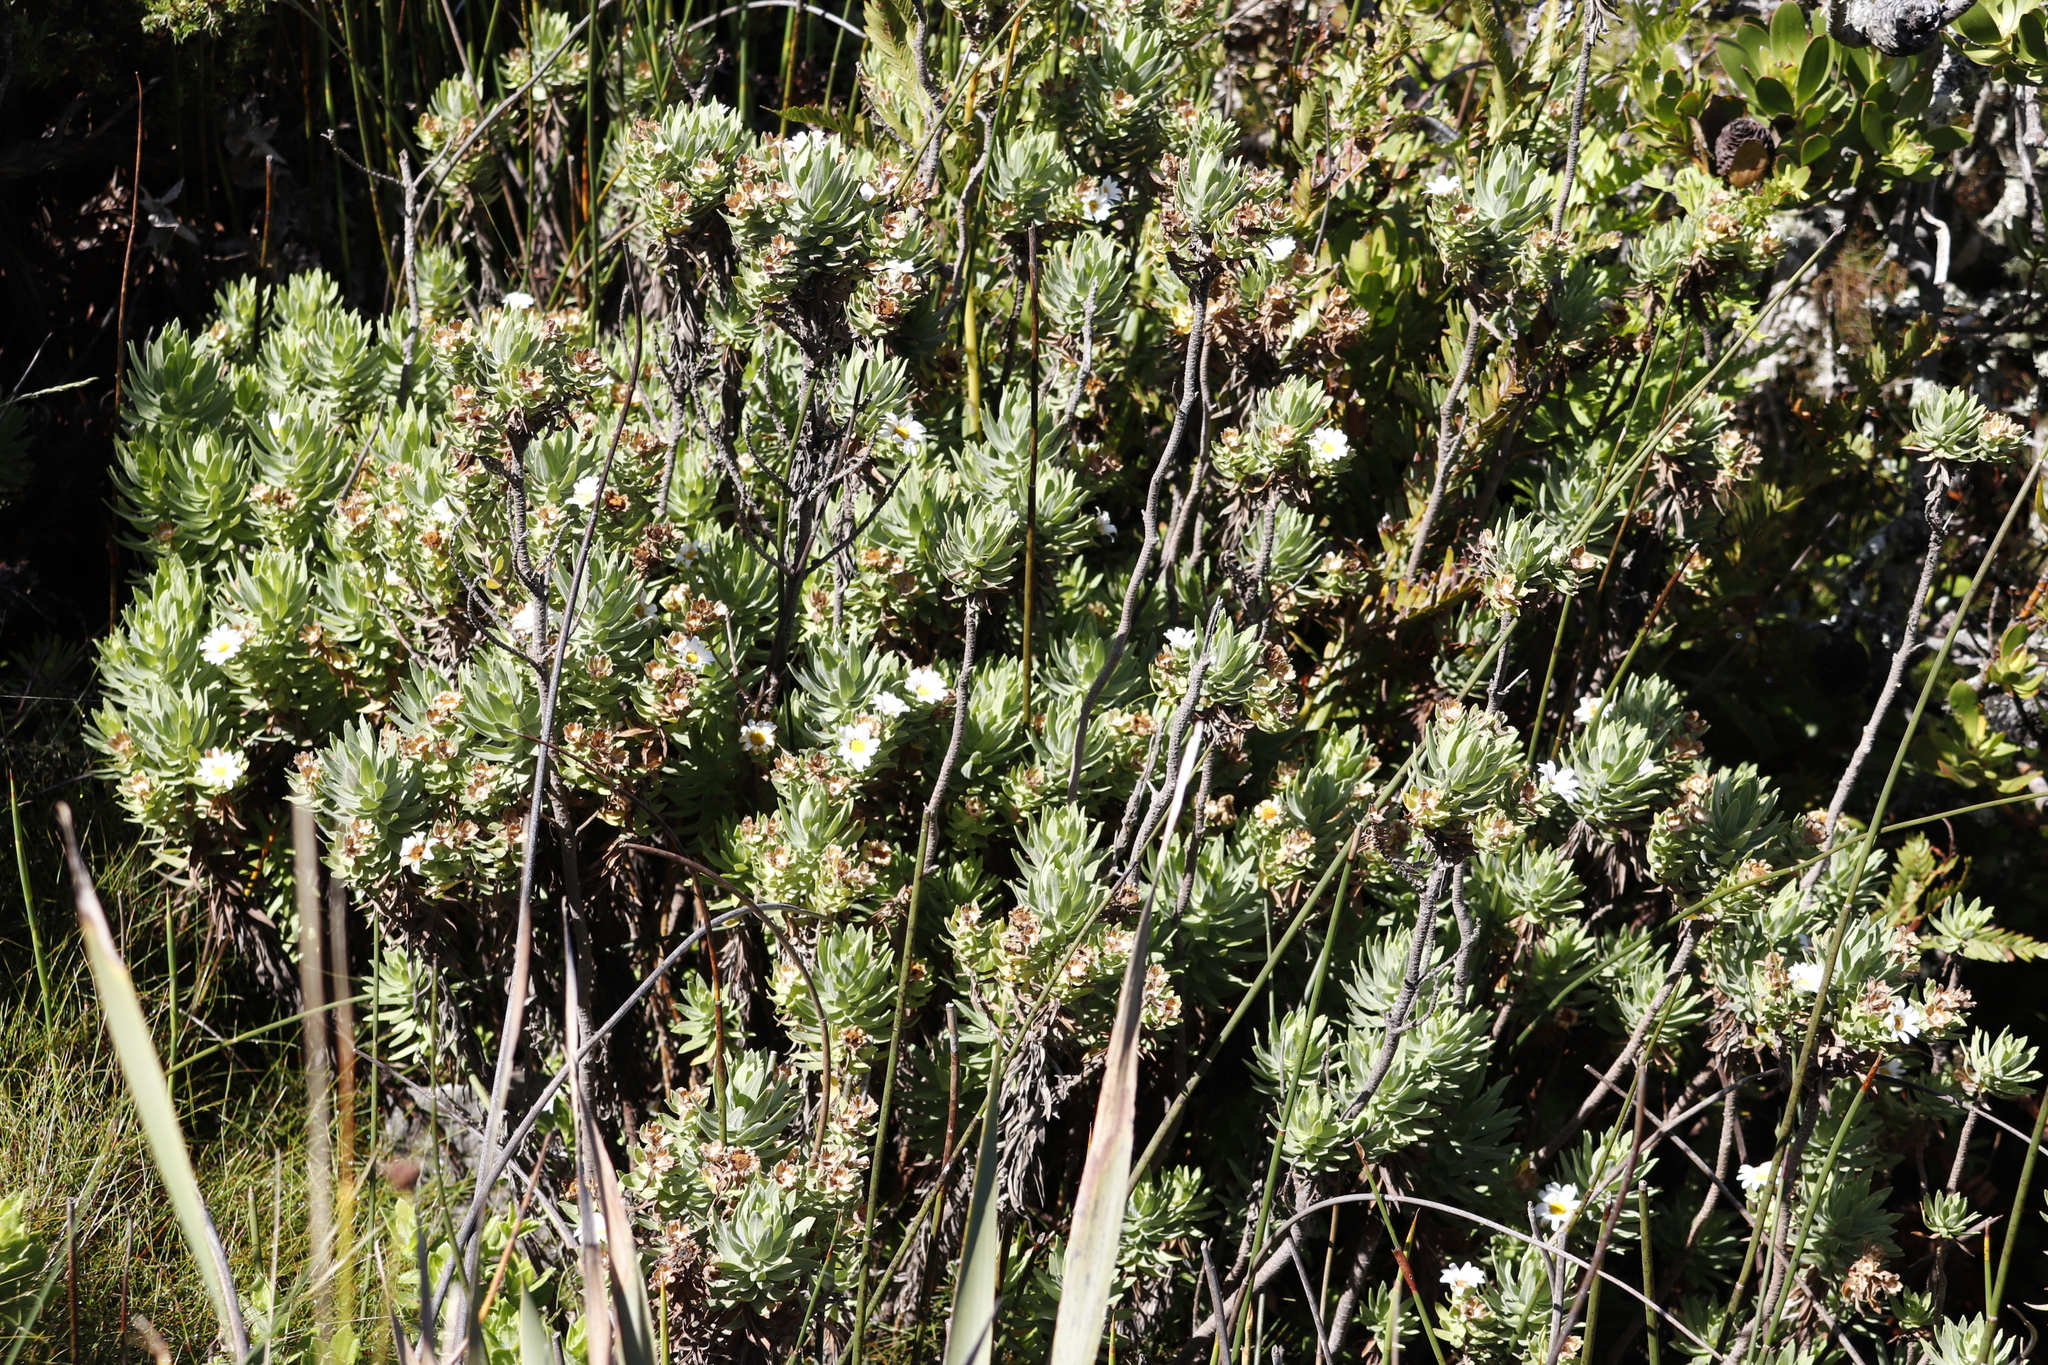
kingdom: Plantae
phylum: Tracheophyta
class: Magnoliopsida
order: Asterales
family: Asteraceae
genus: Osmitopsis
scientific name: Osmitopsis asteriscoides
